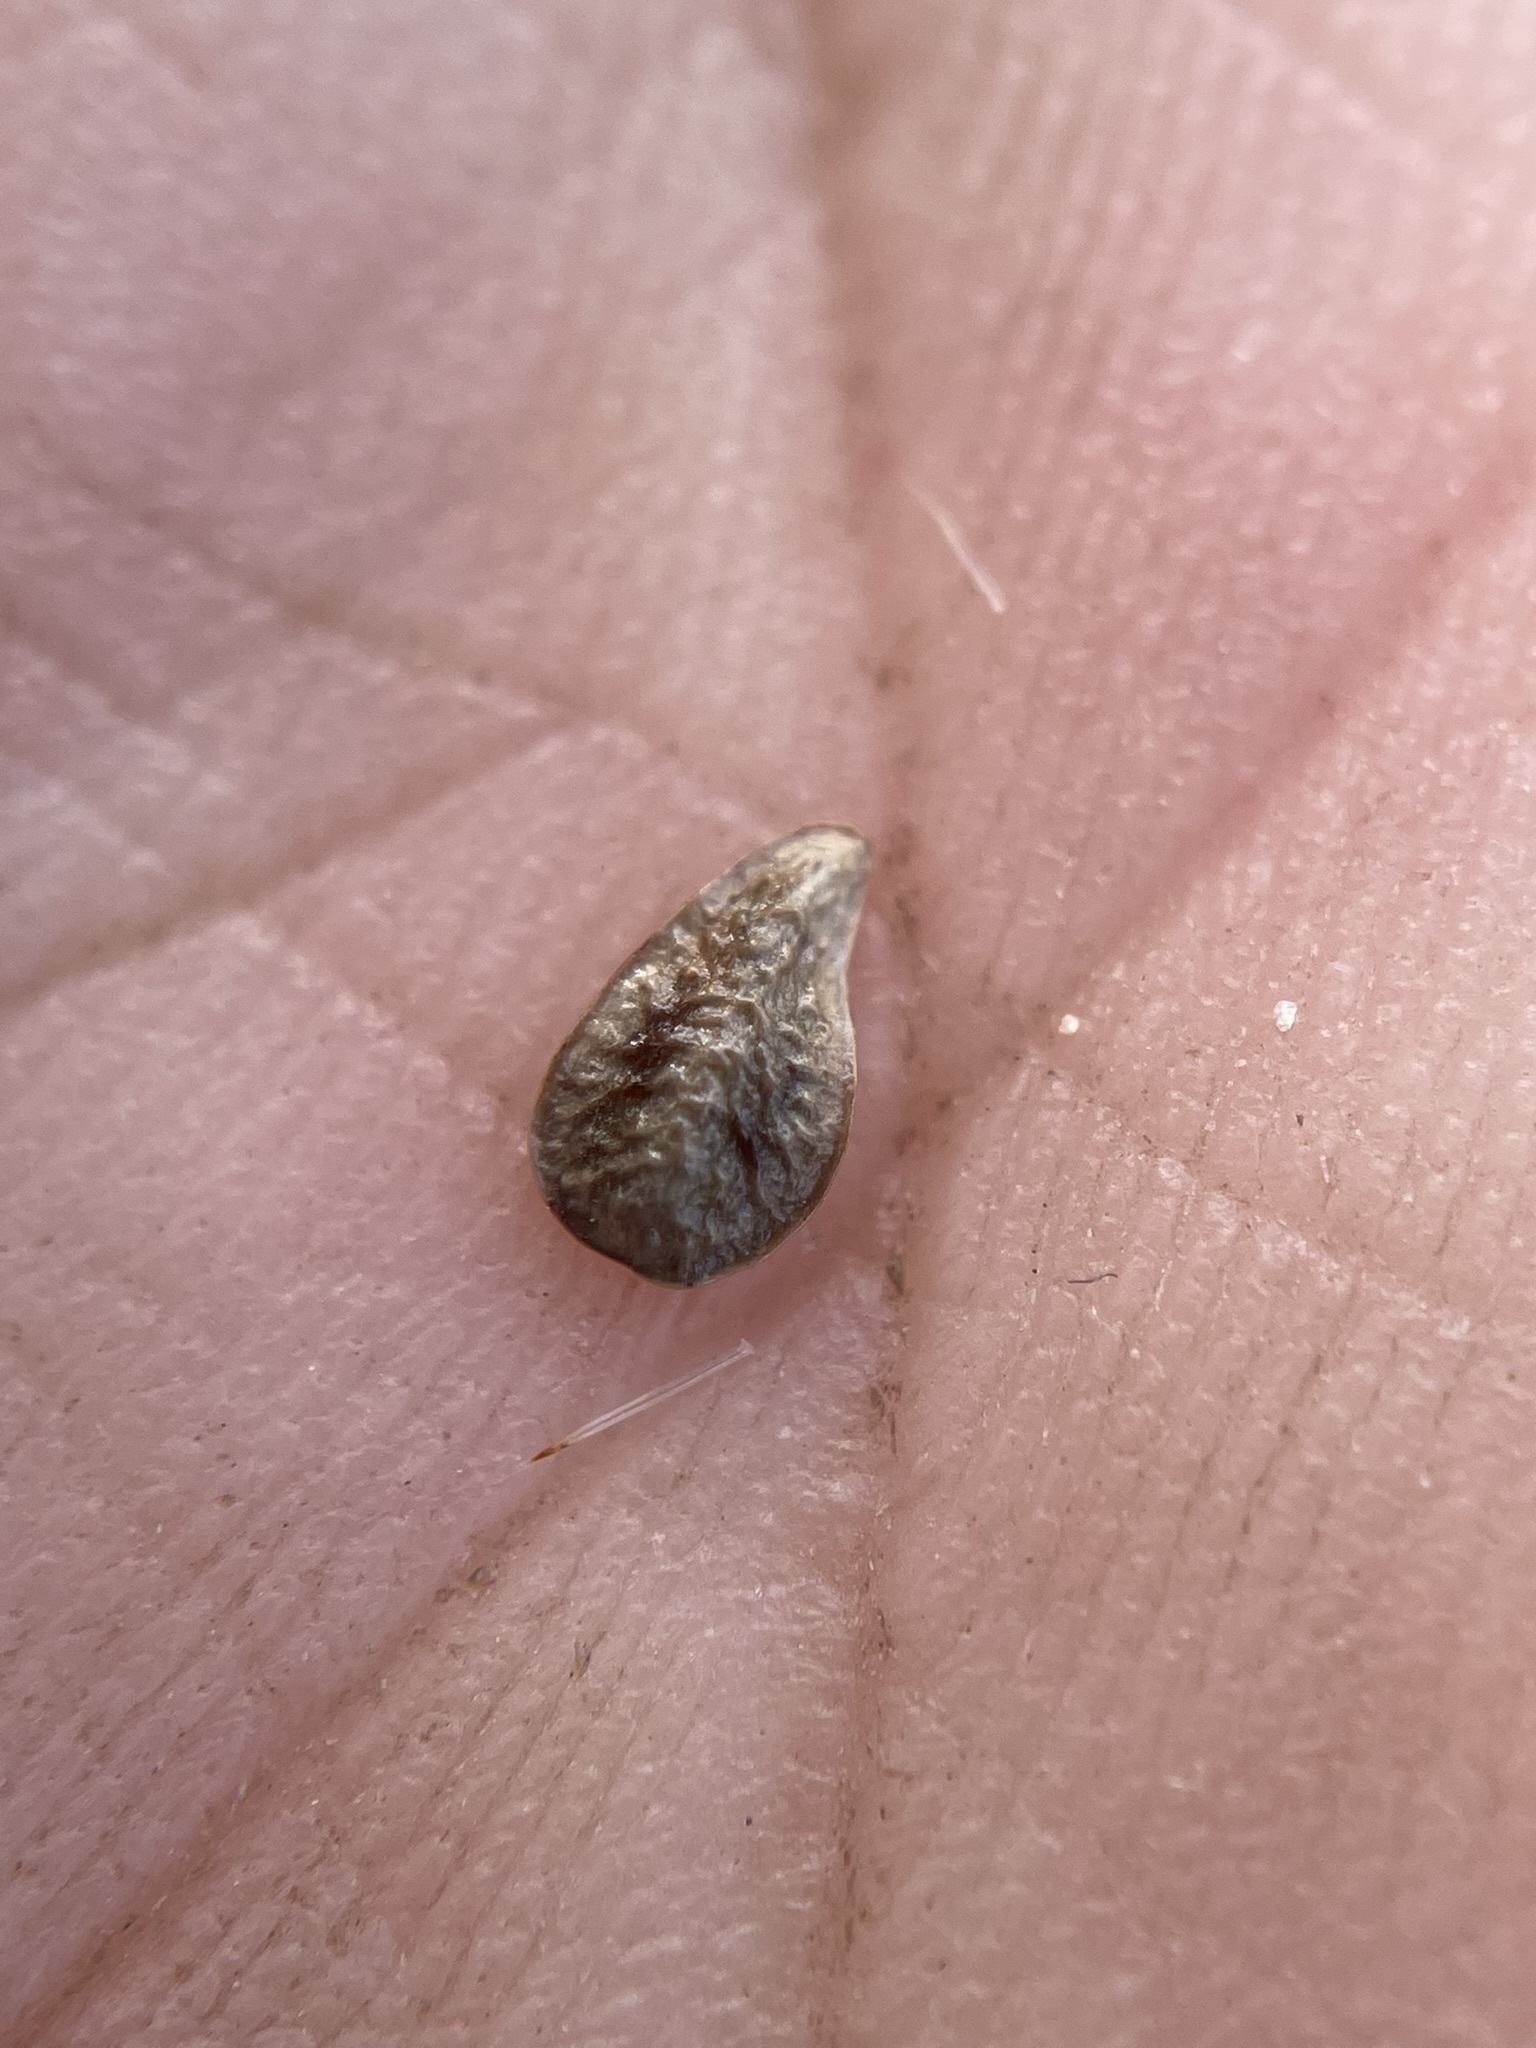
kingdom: Plantae
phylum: Tracheophyta
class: Magnoliopsida
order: Boraginales
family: Boraginaceae
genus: Oreocarya
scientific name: Oreocarya thompsonii
